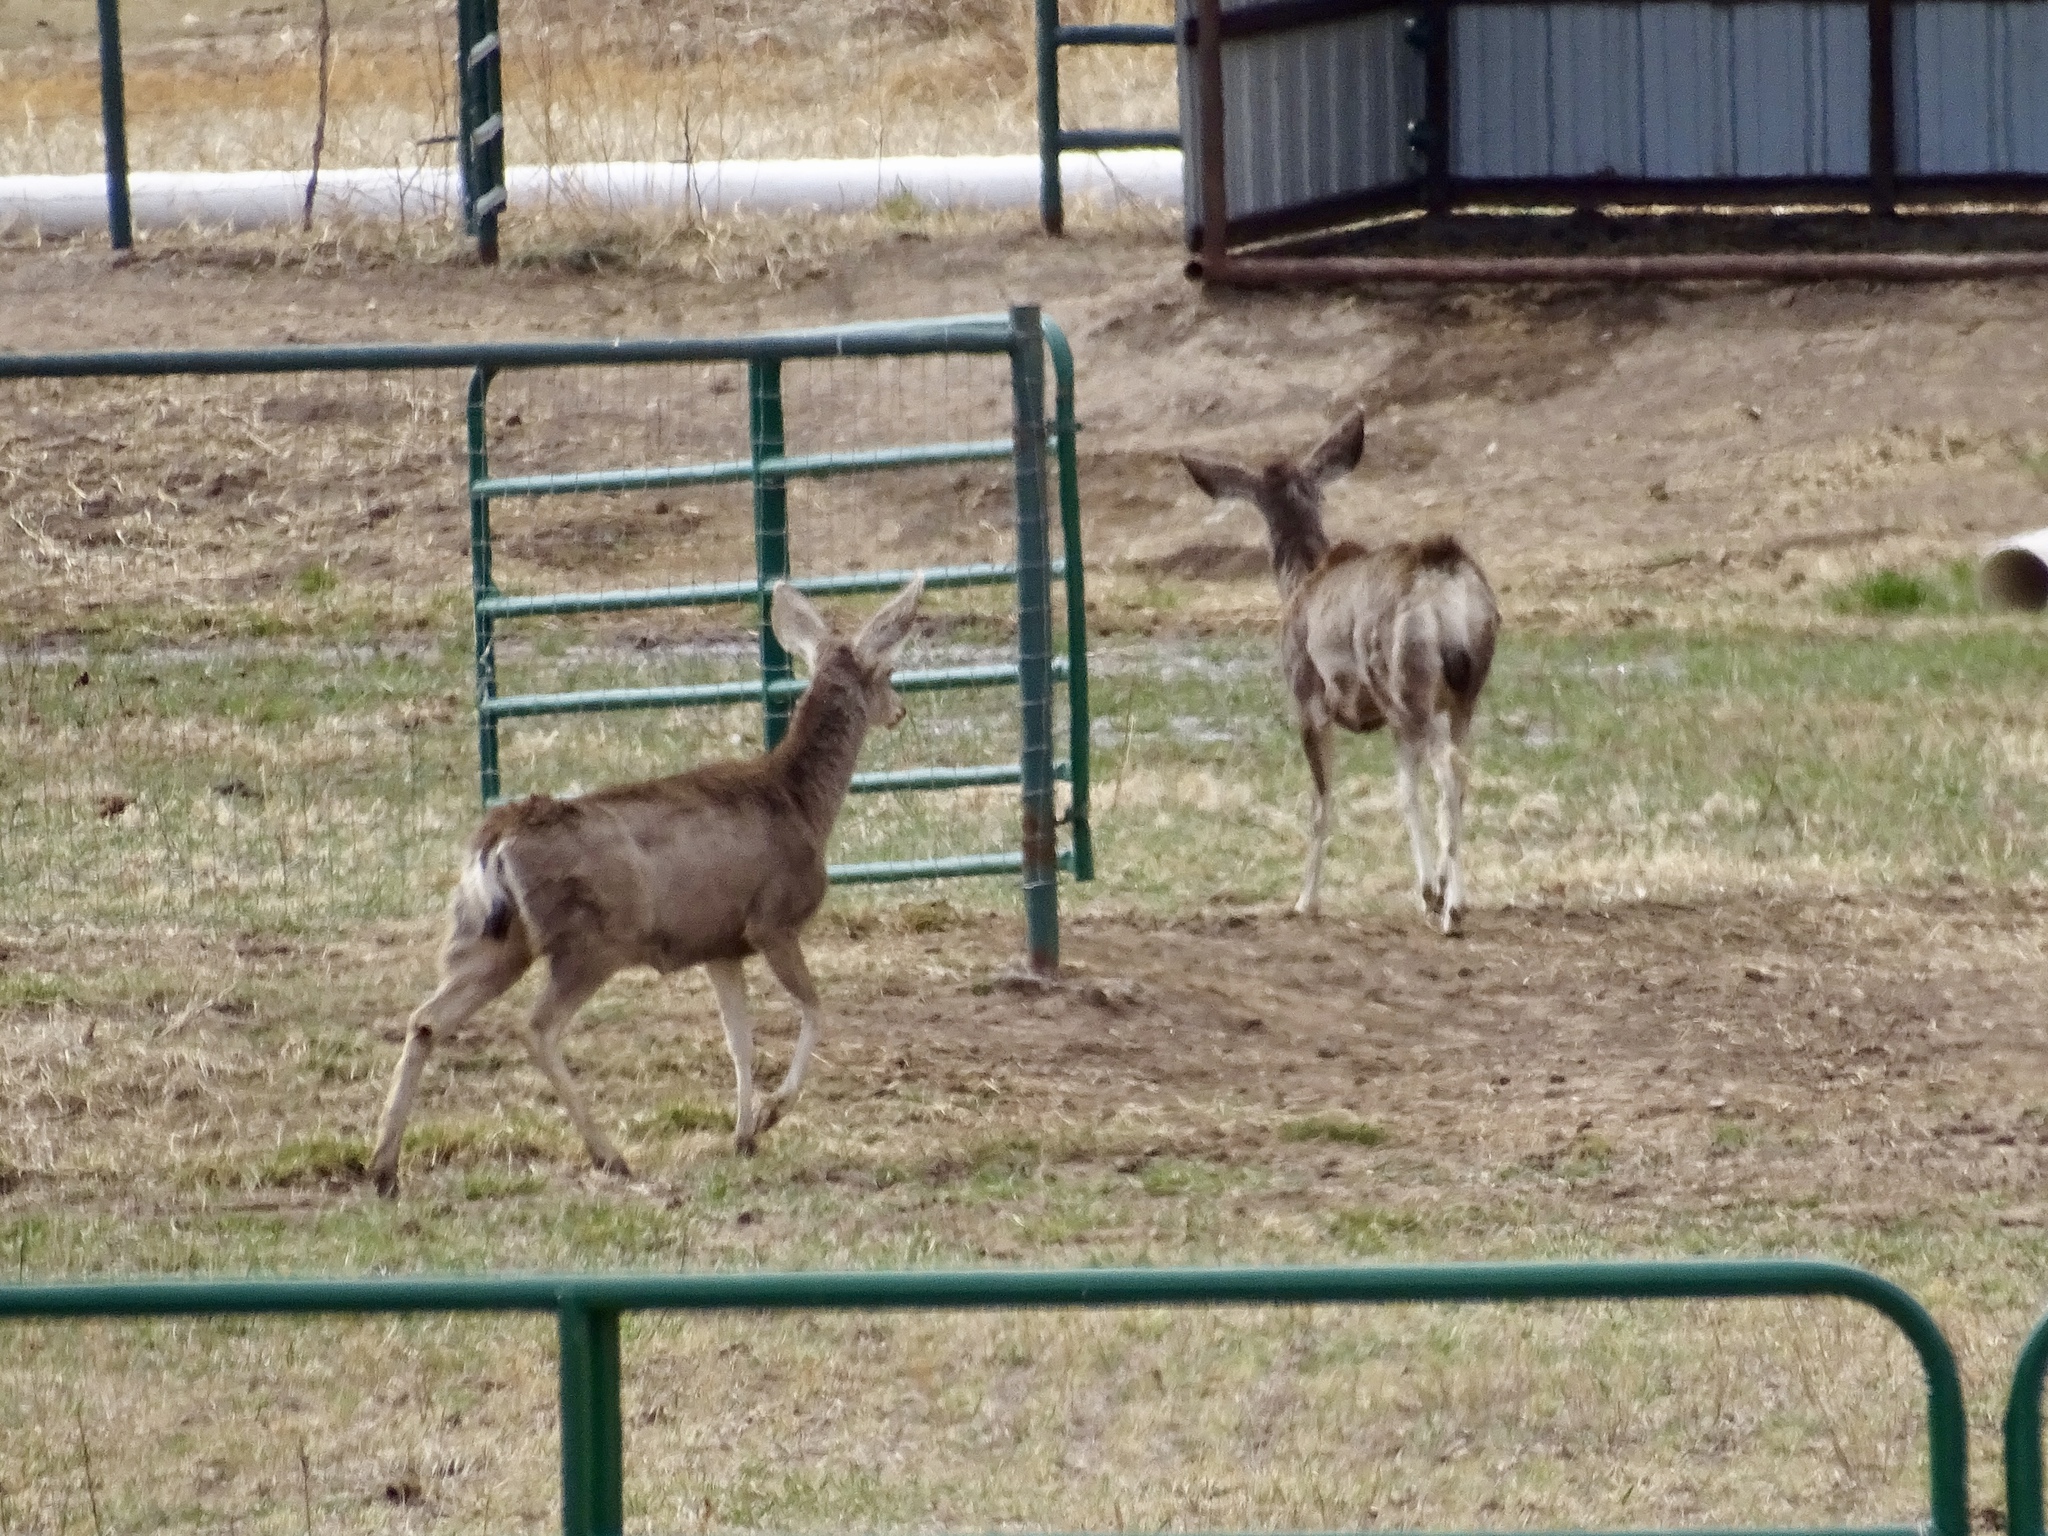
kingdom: Animalia
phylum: Chordata
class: Mammalia
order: Artiodactyla
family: Cervidae
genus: Odocoileus
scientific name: Odocoileus hemionus
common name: Mule deer
